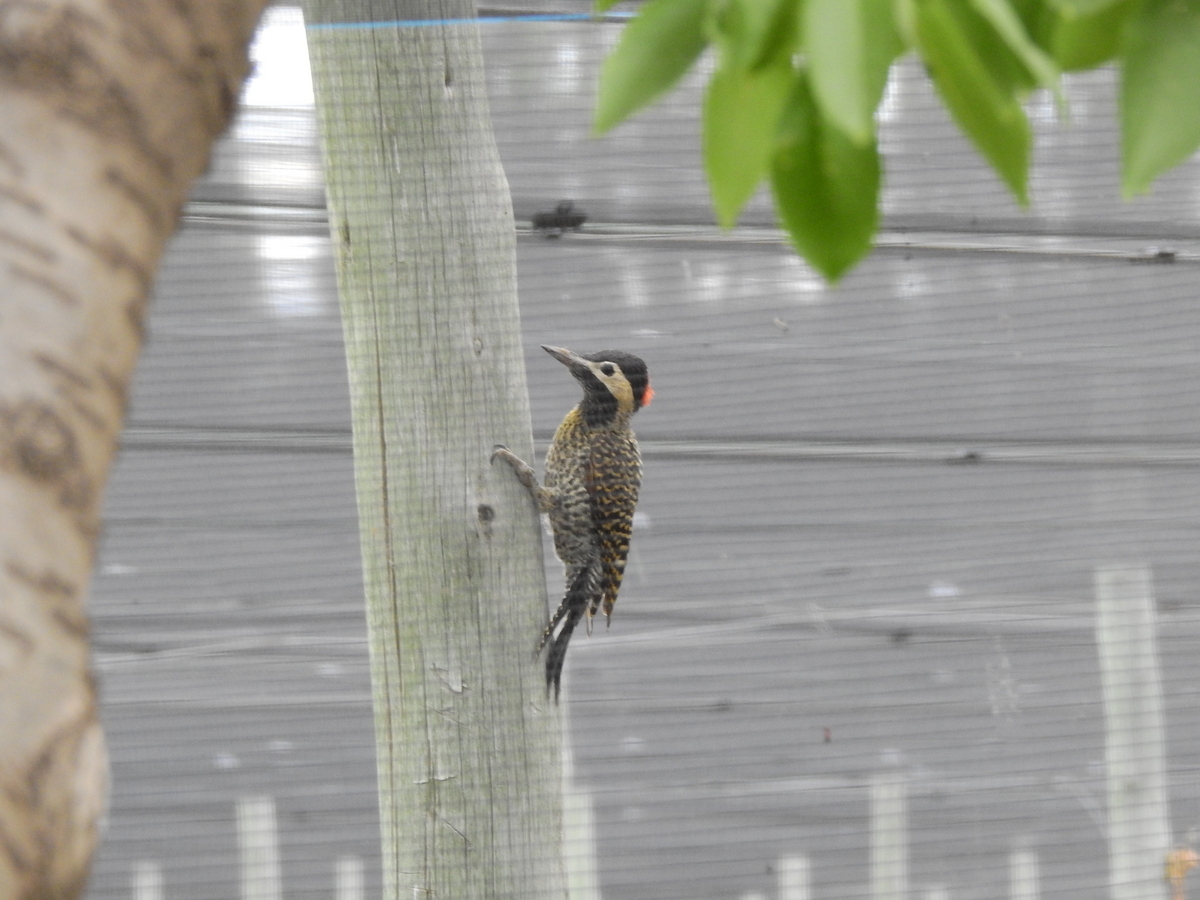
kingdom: Animalia
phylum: Chordata
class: Aves
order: Piciformes
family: Picidae
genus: Colaptes
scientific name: Colaptes melanochloros
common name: Green-barred woodpecker
